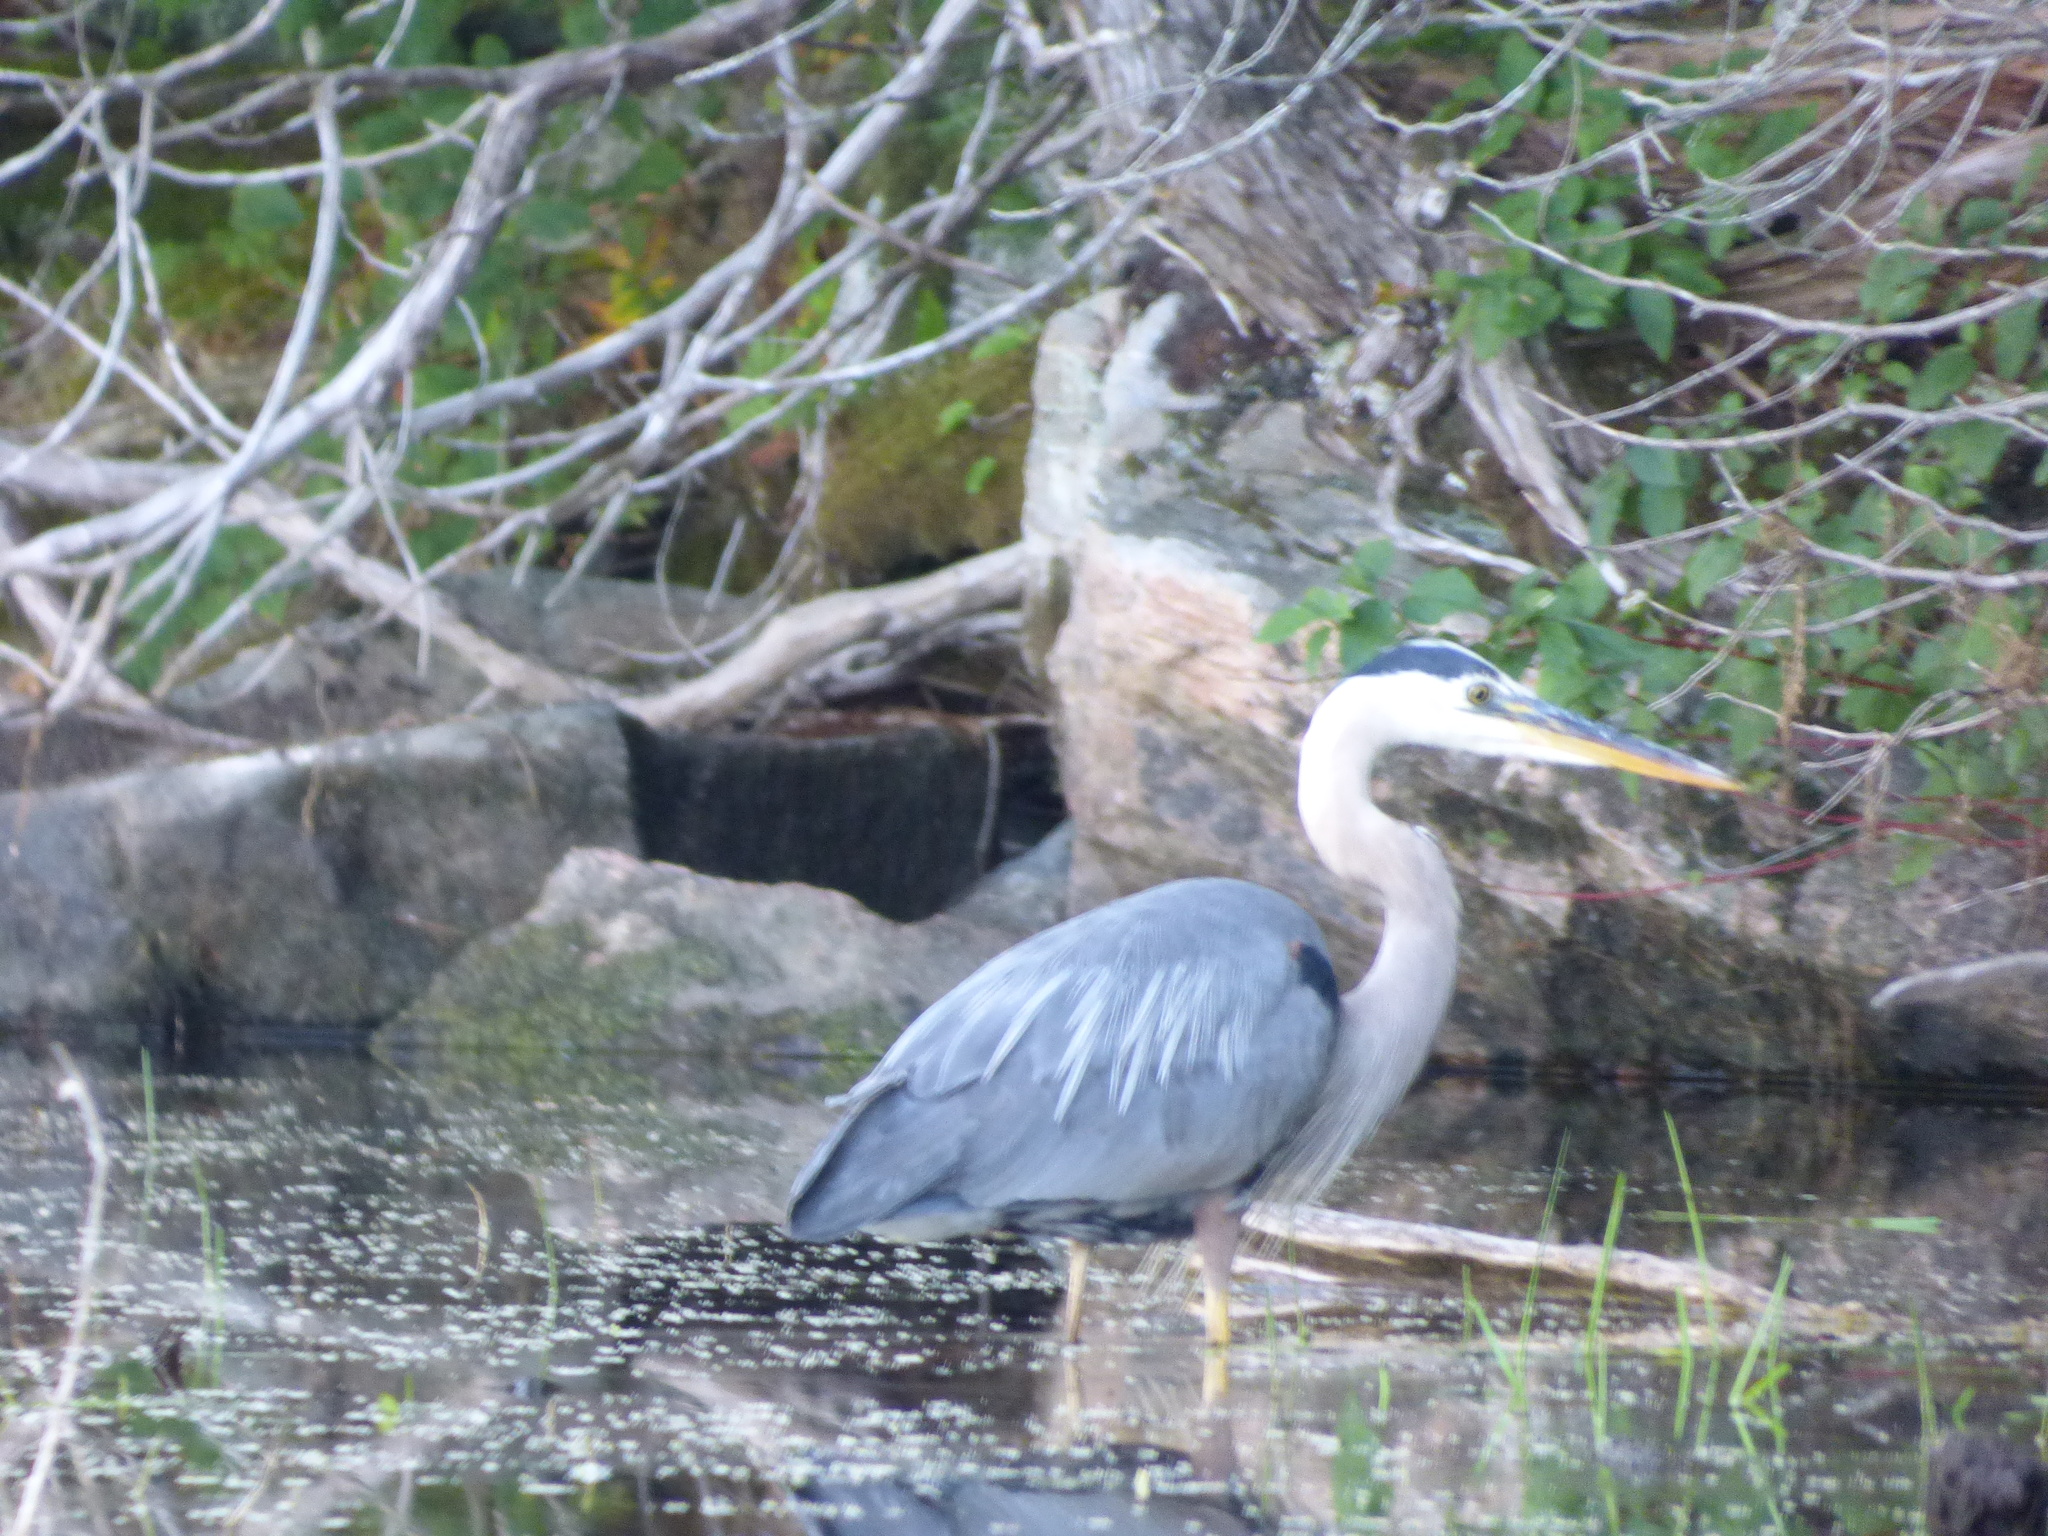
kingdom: Animalia
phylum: Chordata
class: Aves
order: Pelecaniformes
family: Ardeidae
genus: Ardea
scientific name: Ardea herodias
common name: Great blue heron
